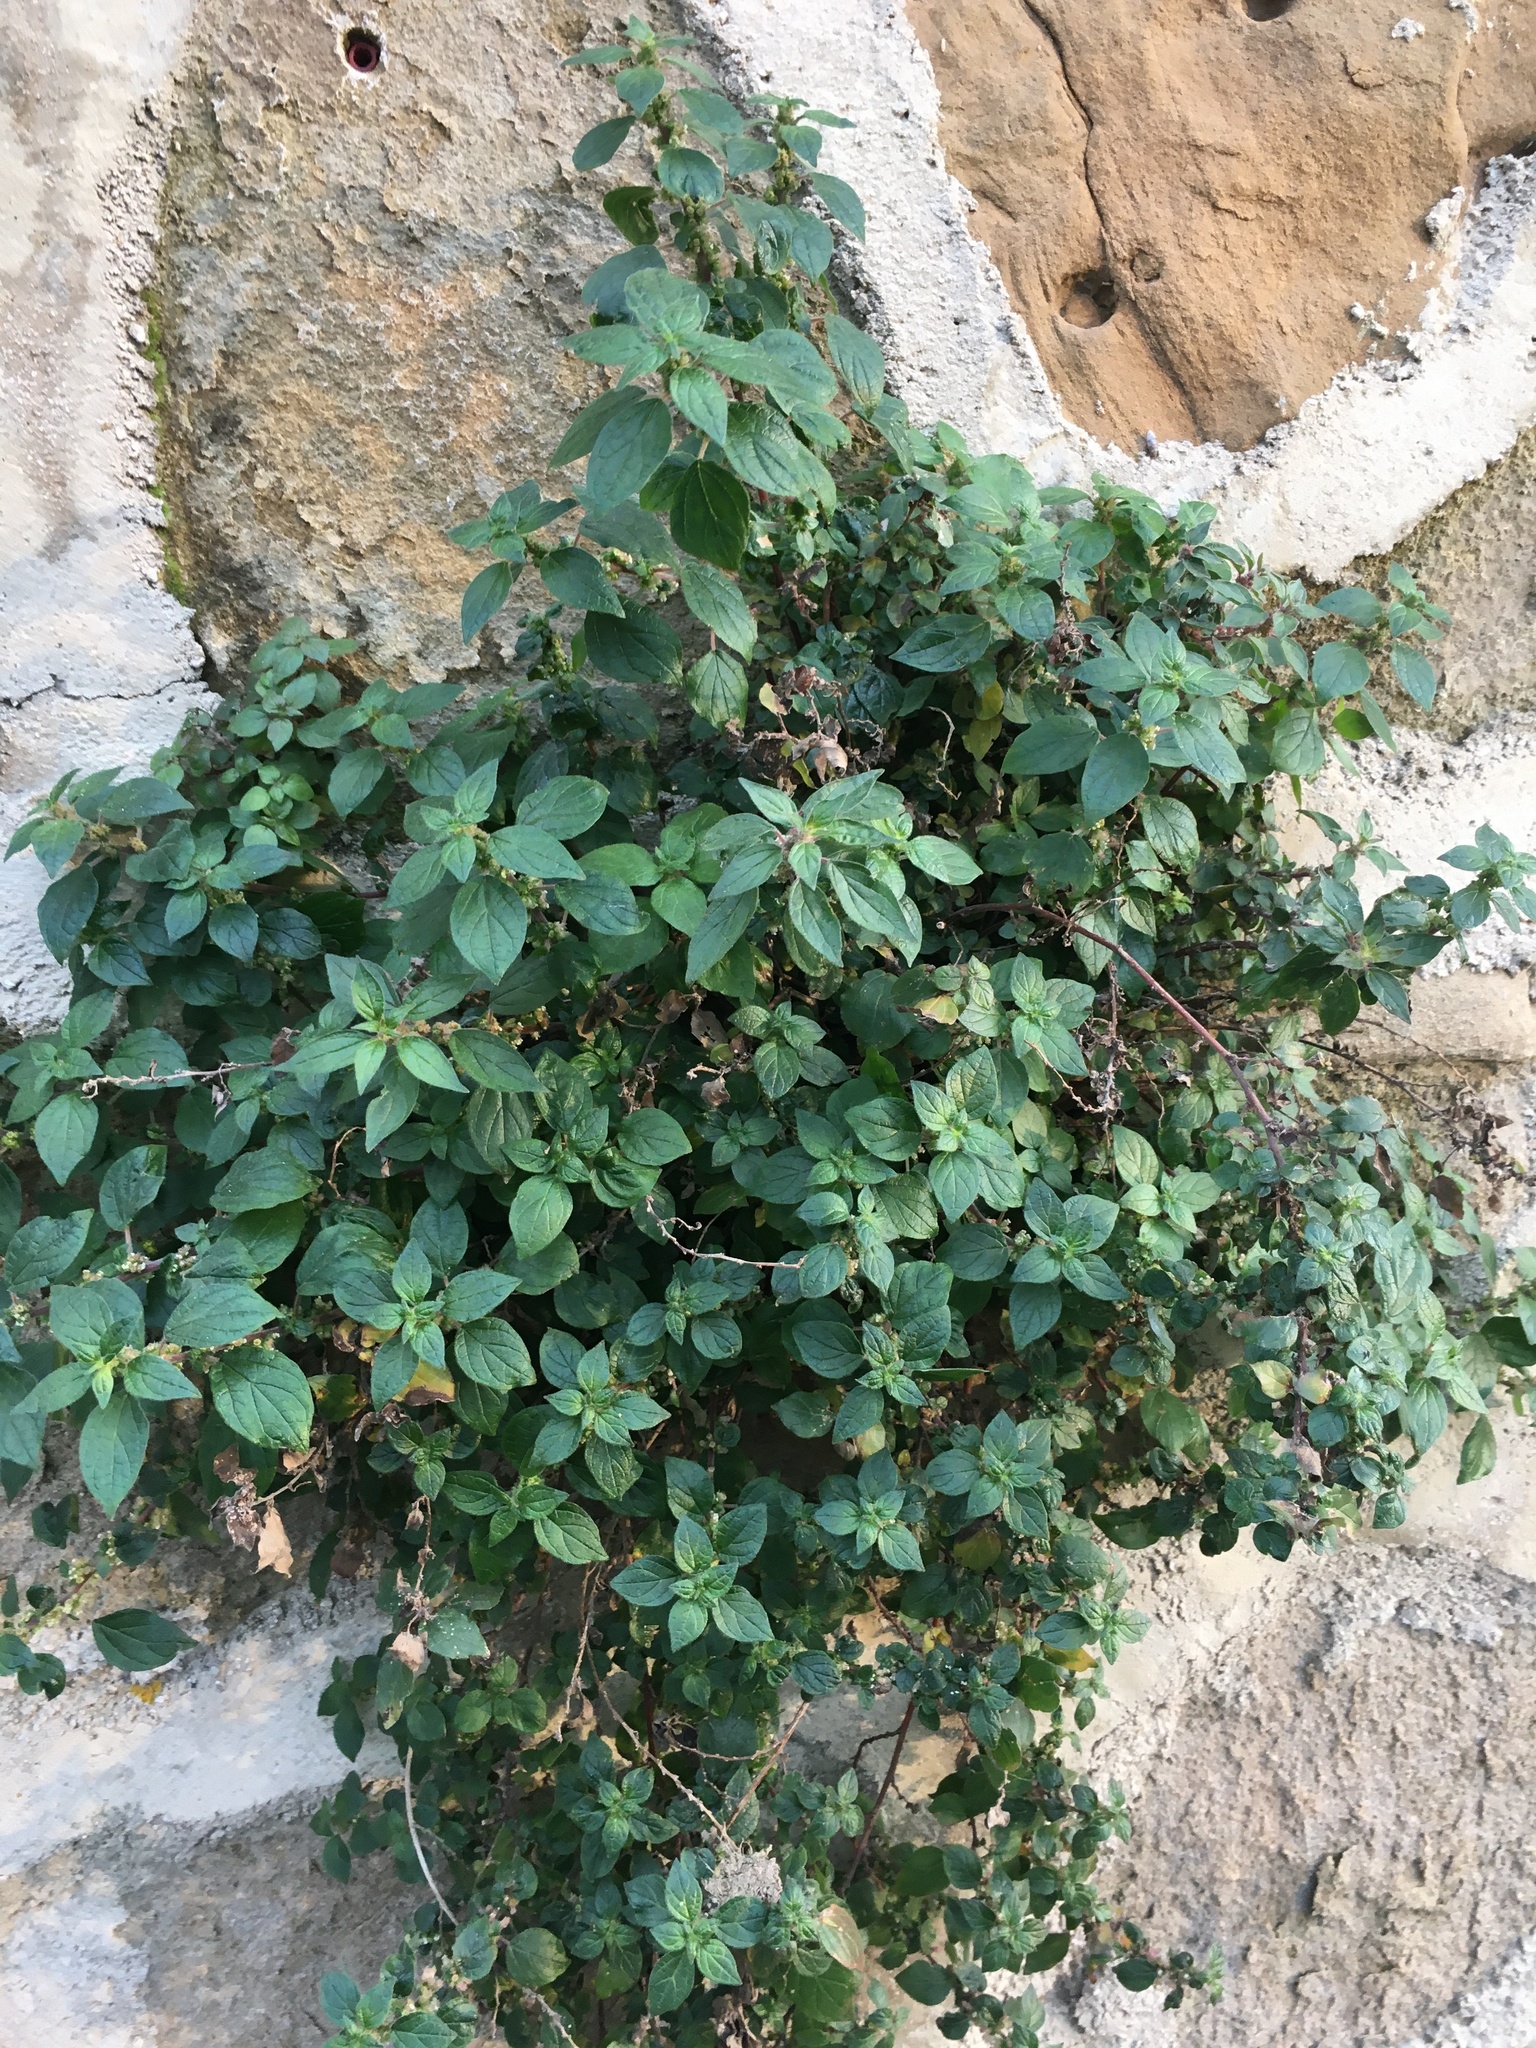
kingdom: Plantae
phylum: Tracheophyta
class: Magnoliopsida
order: Rosales
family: Urticaceae
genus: Parietaria
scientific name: Parietaria judaica
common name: Pellitory-of-the-wall
